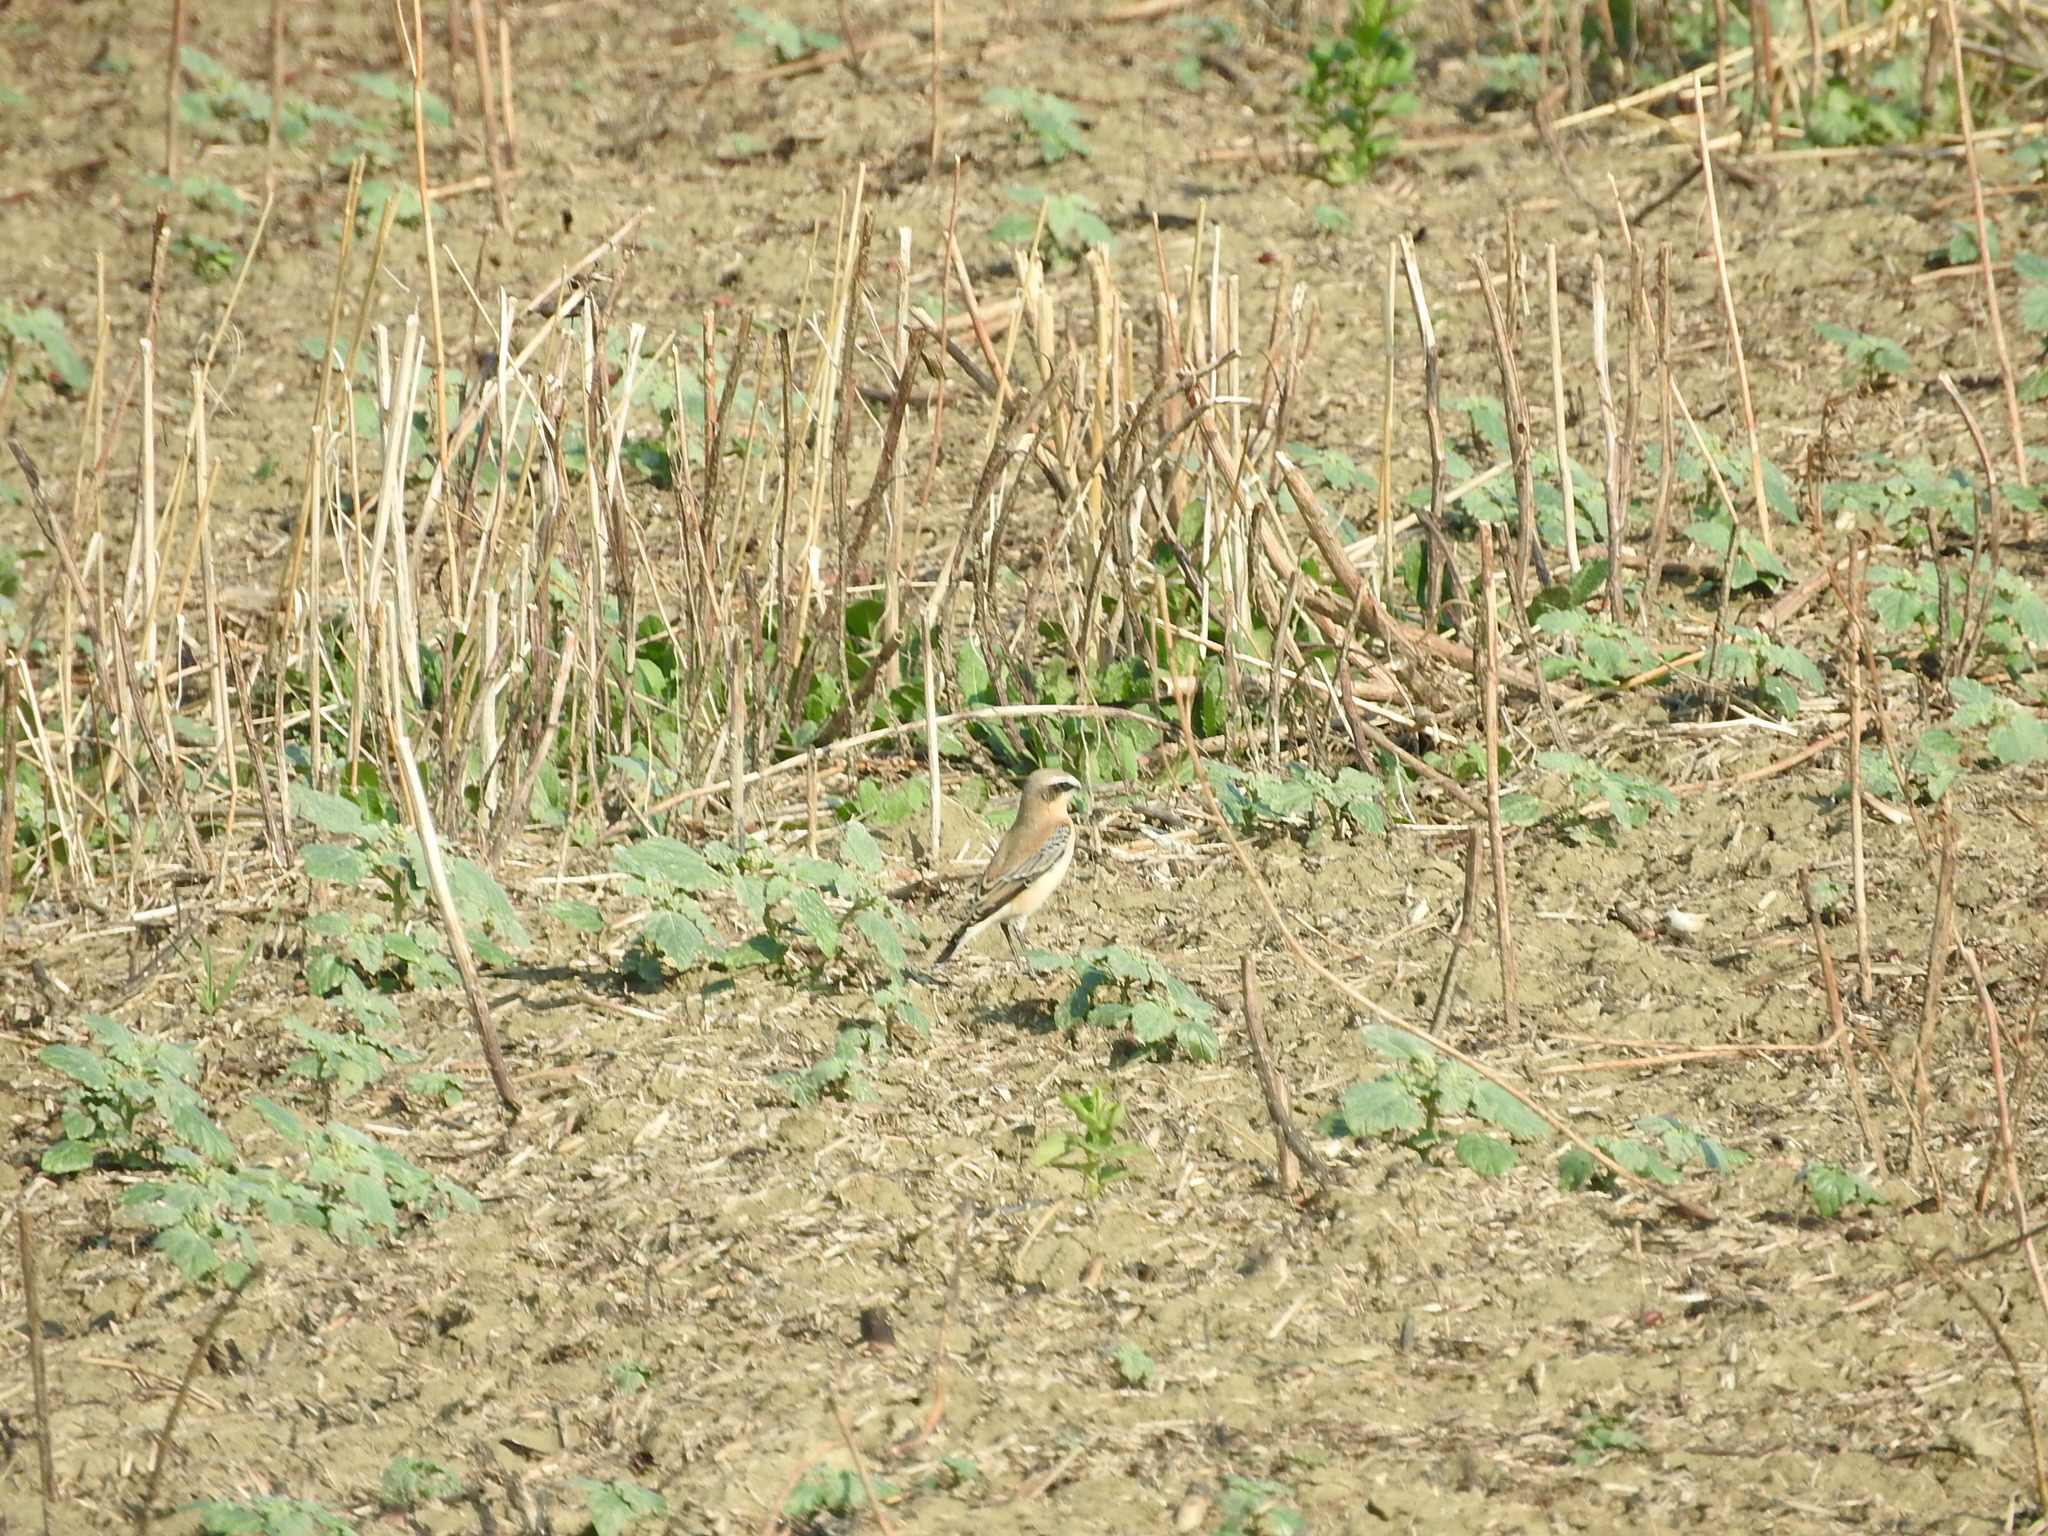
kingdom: Animalia
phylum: Chordata
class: Aves
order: Passeriformes
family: Muscicapidae
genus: Oenanthe
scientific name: Oenanthe oenanthe
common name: Northern wheatear
